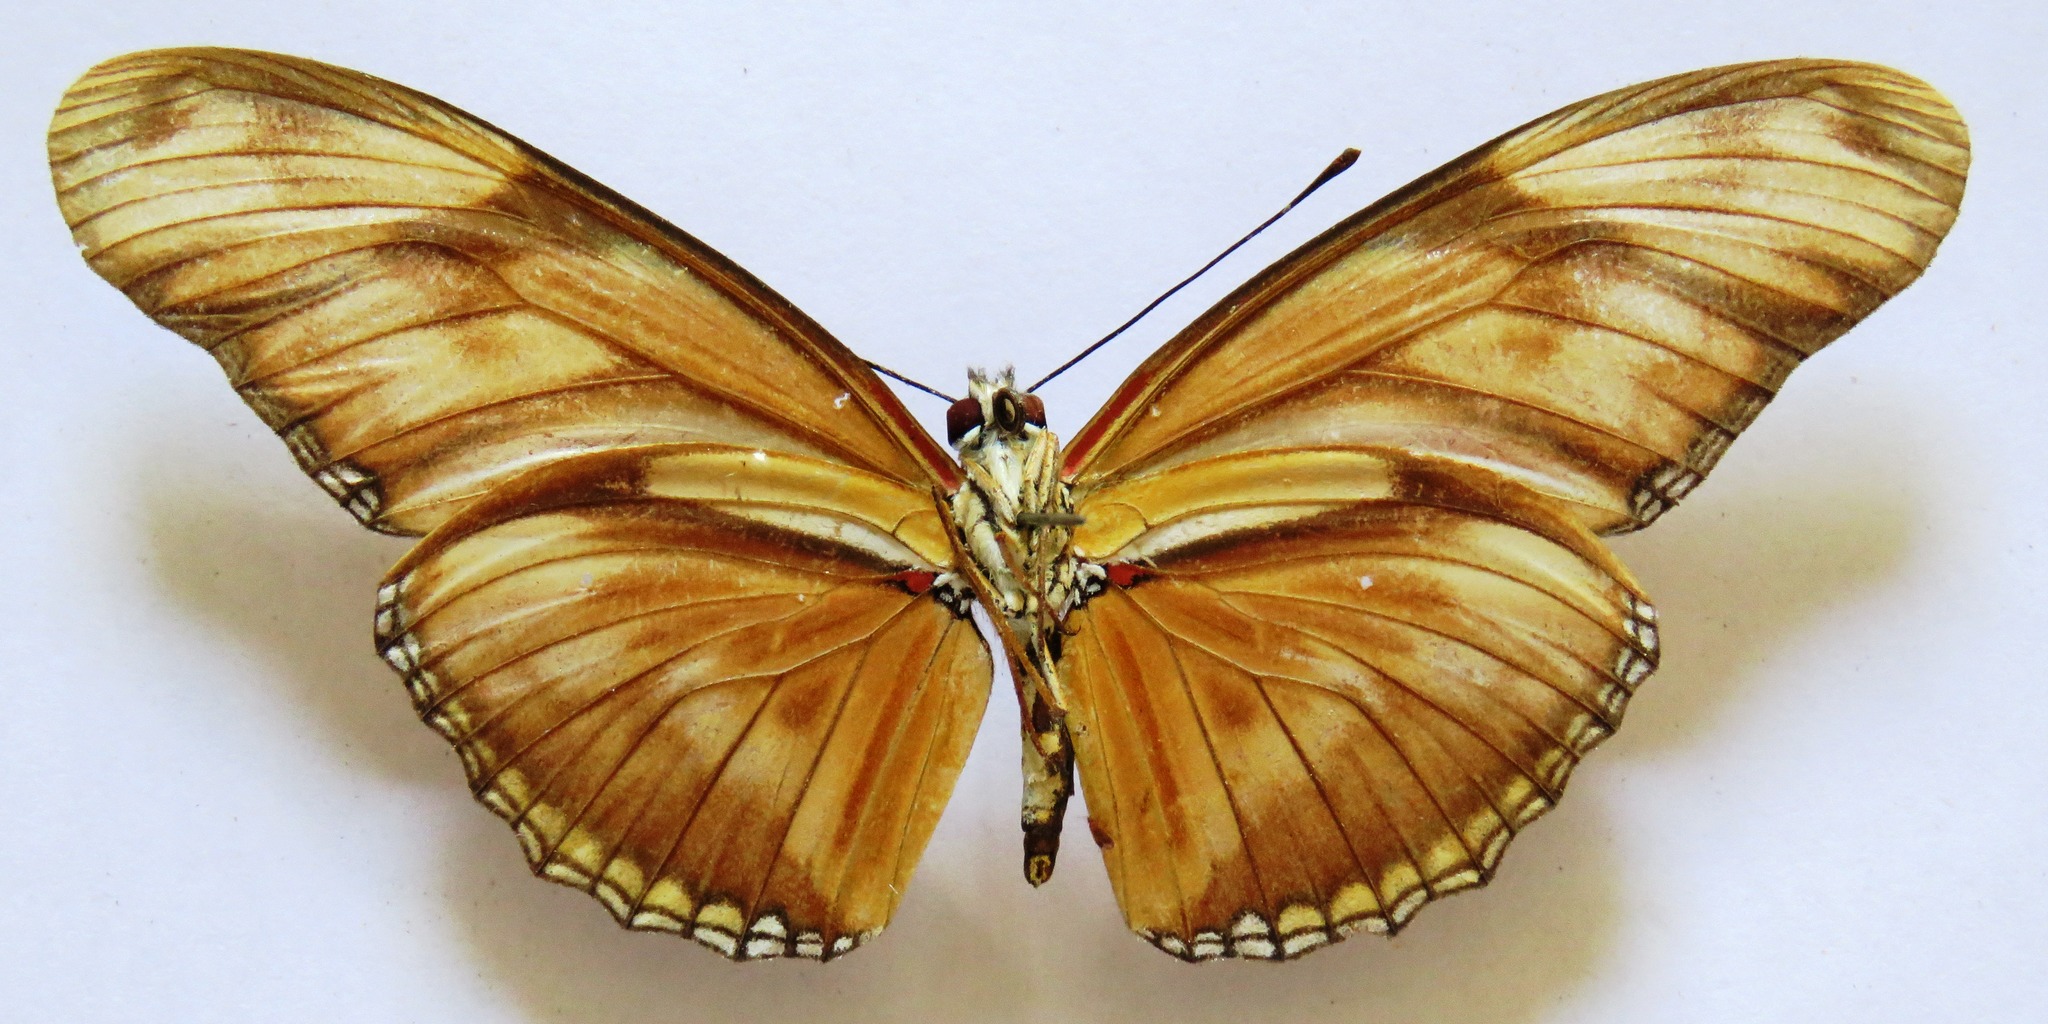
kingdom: Animalia
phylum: Arthropoda
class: Insecta
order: Lepidoptera
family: Nymphalidae
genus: Dryas
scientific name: Dryas iulia
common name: Flambeau
